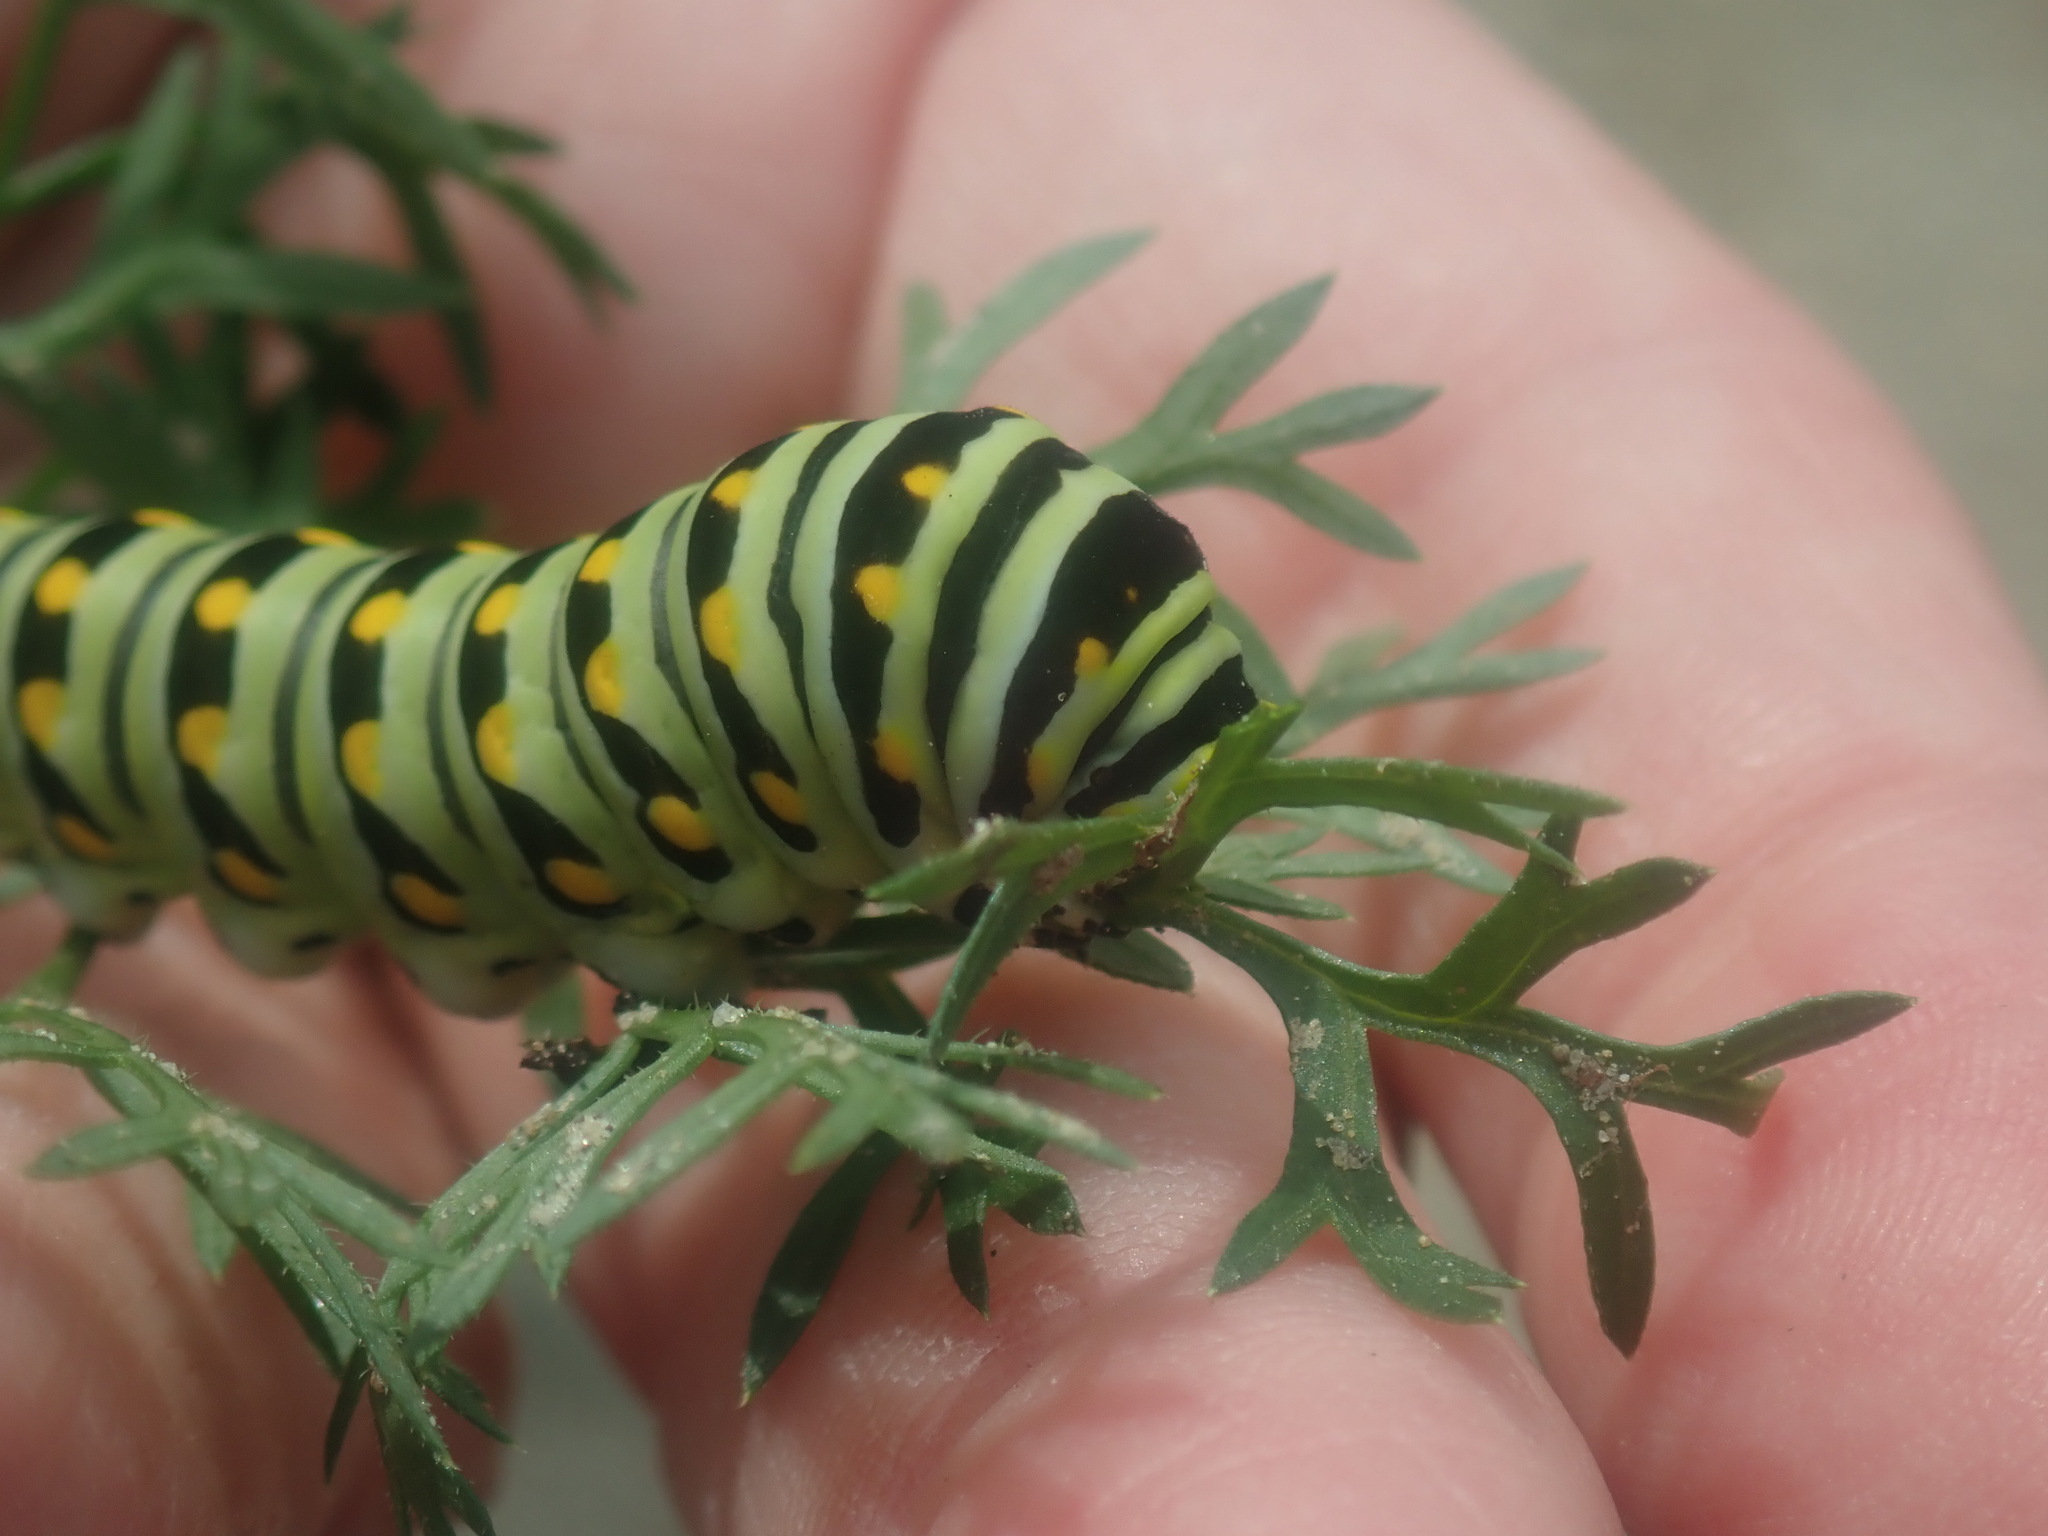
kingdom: Animalia
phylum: Arthropoda
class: Insecta
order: Lepidoptera
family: Papilionidae
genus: Papilio
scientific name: Papilio polyxenes
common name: Black swallowtail
